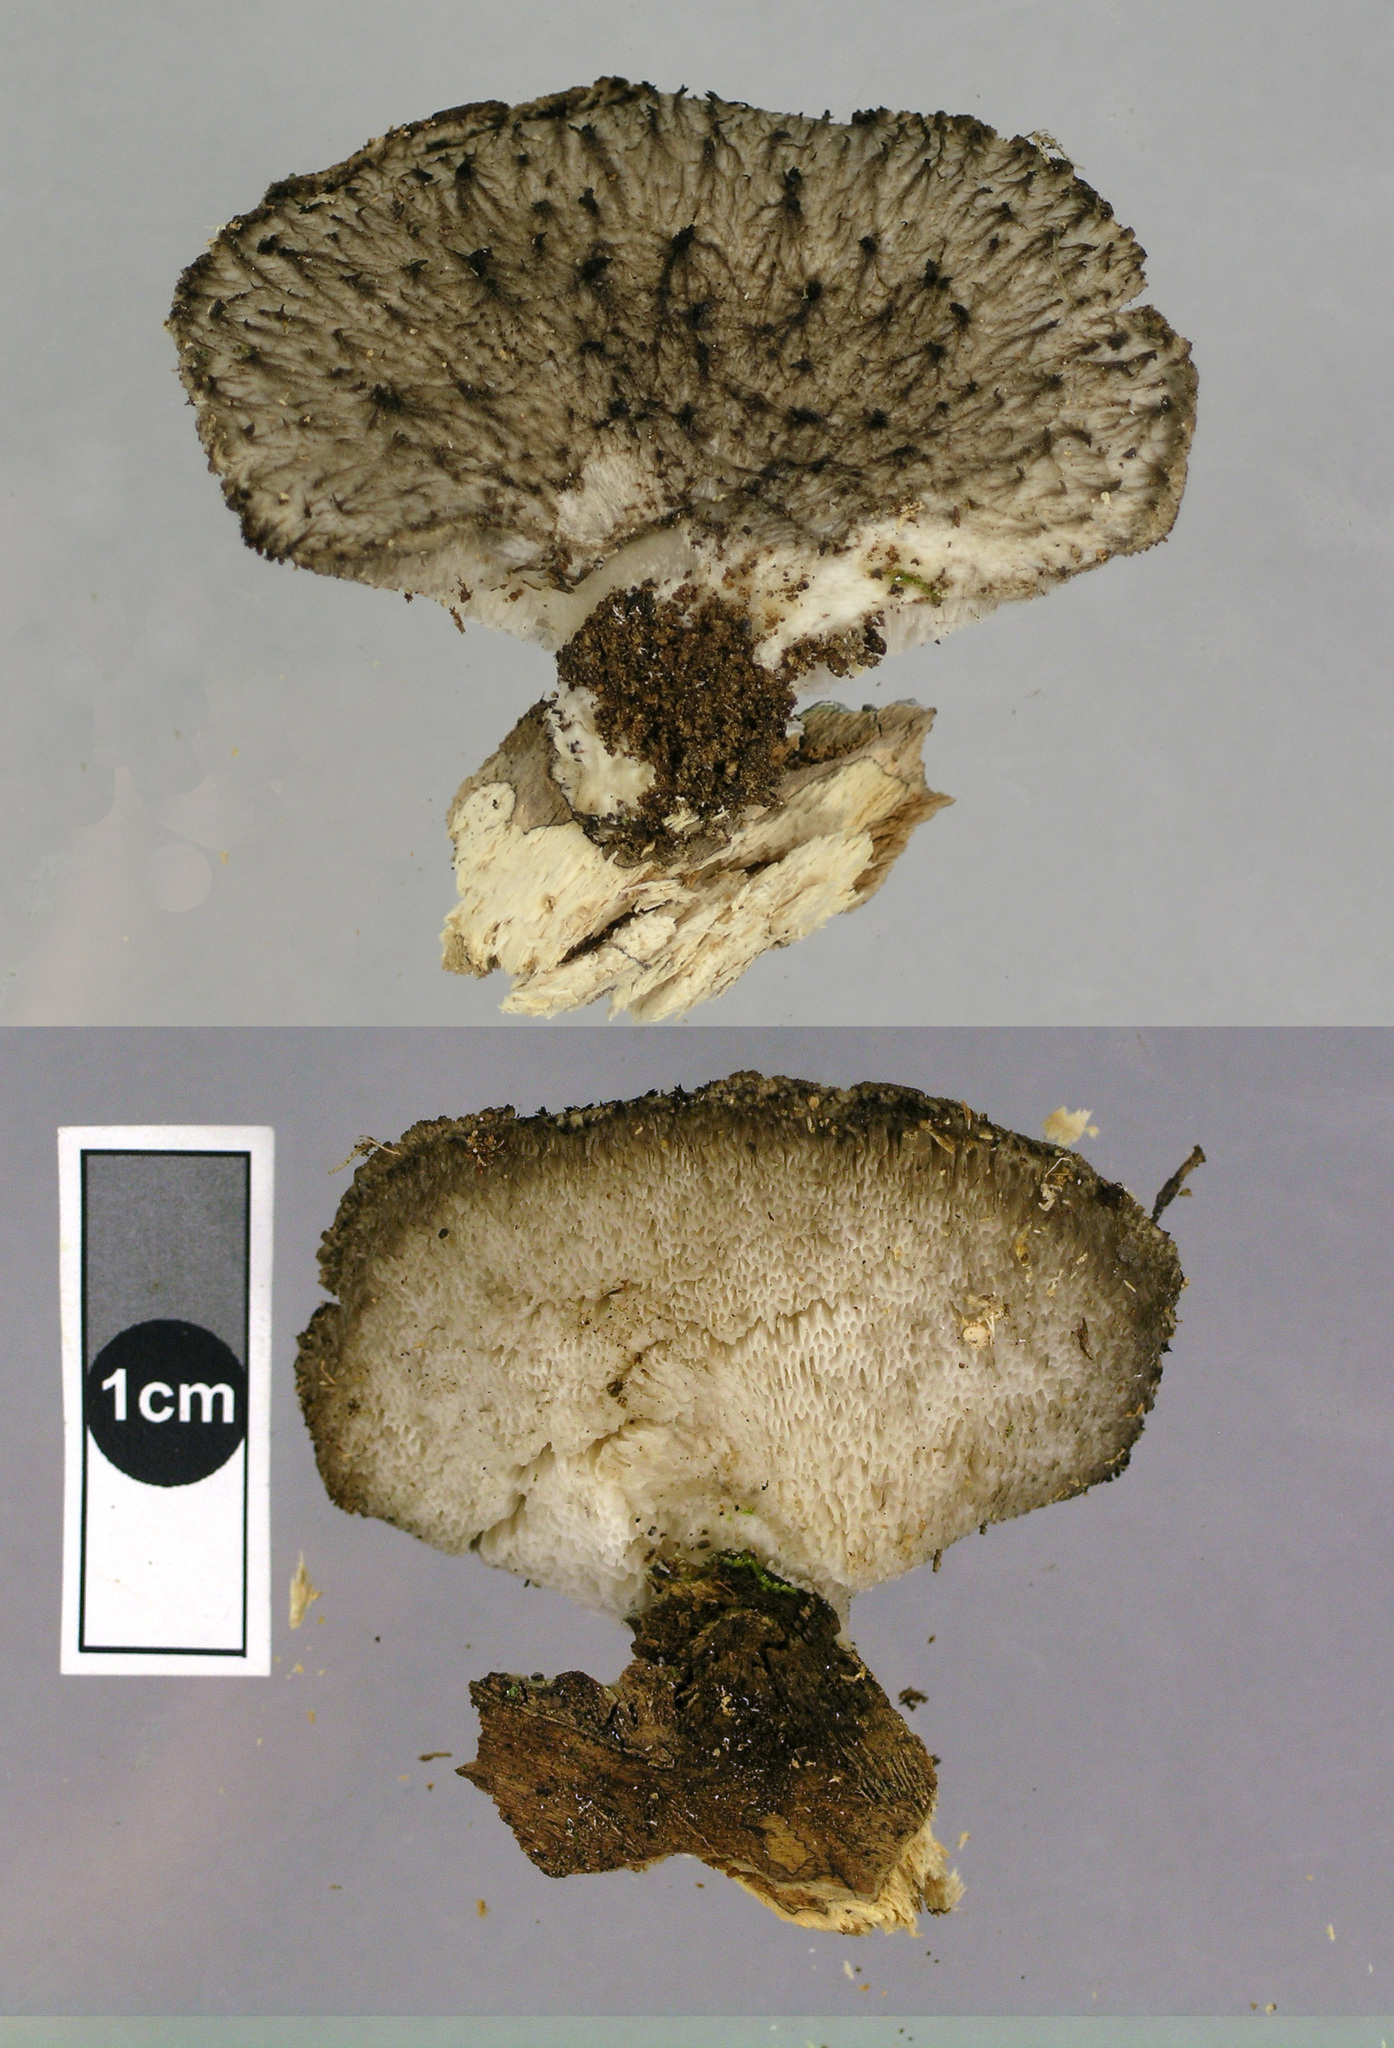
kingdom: Fungi
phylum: Basidiomycota
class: Agaricomycetes
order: Polyporales
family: Polyporaceae
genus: Bresadolia
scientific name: Bresadolia
